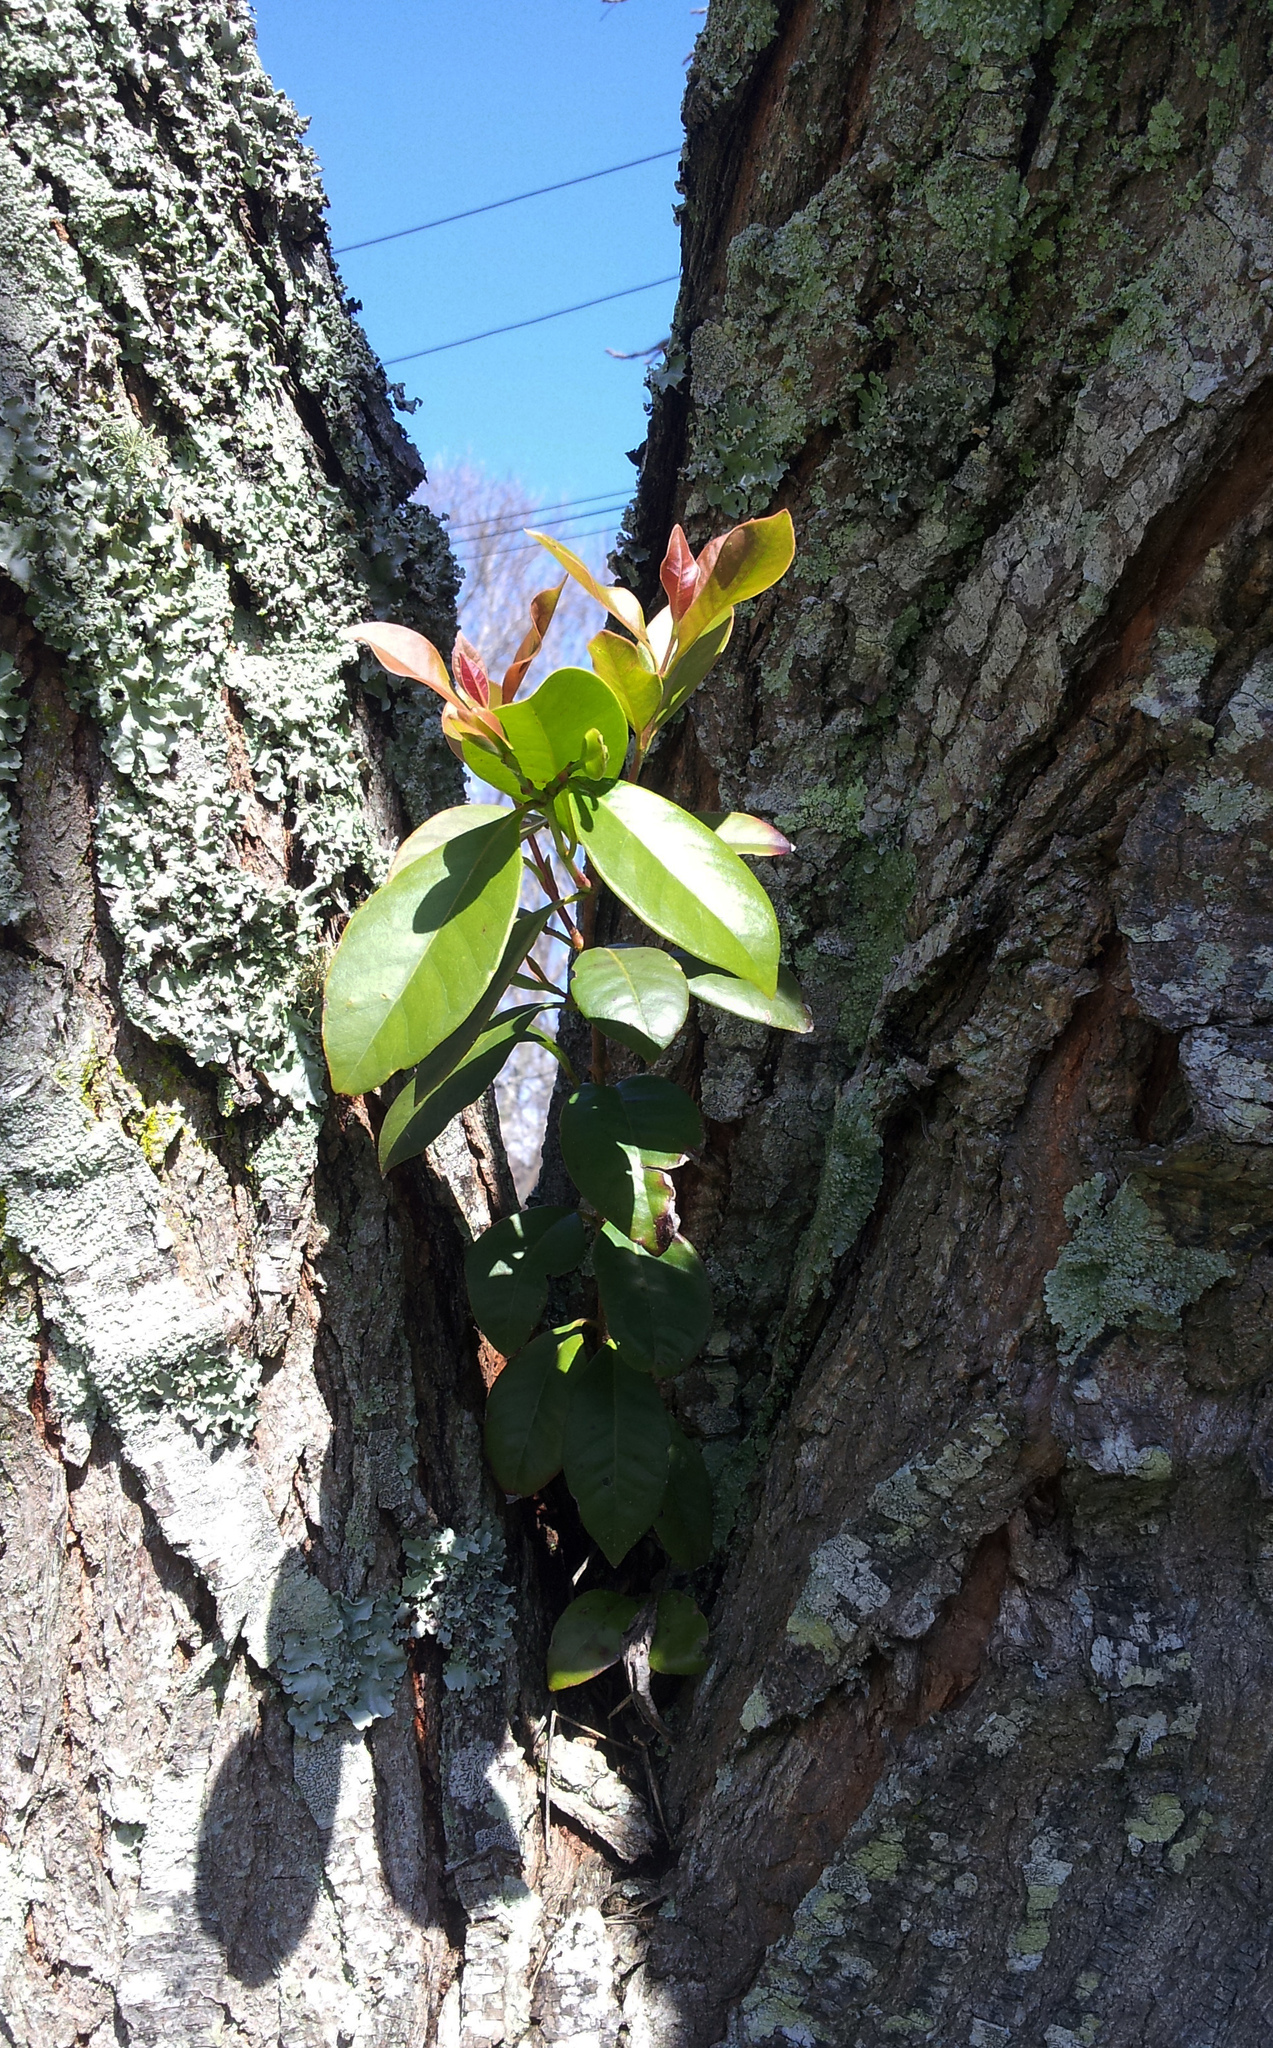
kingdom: Plantae
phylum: Tracheophyta
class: Magnoliopsida
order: Myrtales
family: Myrtaceae
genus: Psidium
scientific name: Psidium cattleianum
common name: Strawberry guava
